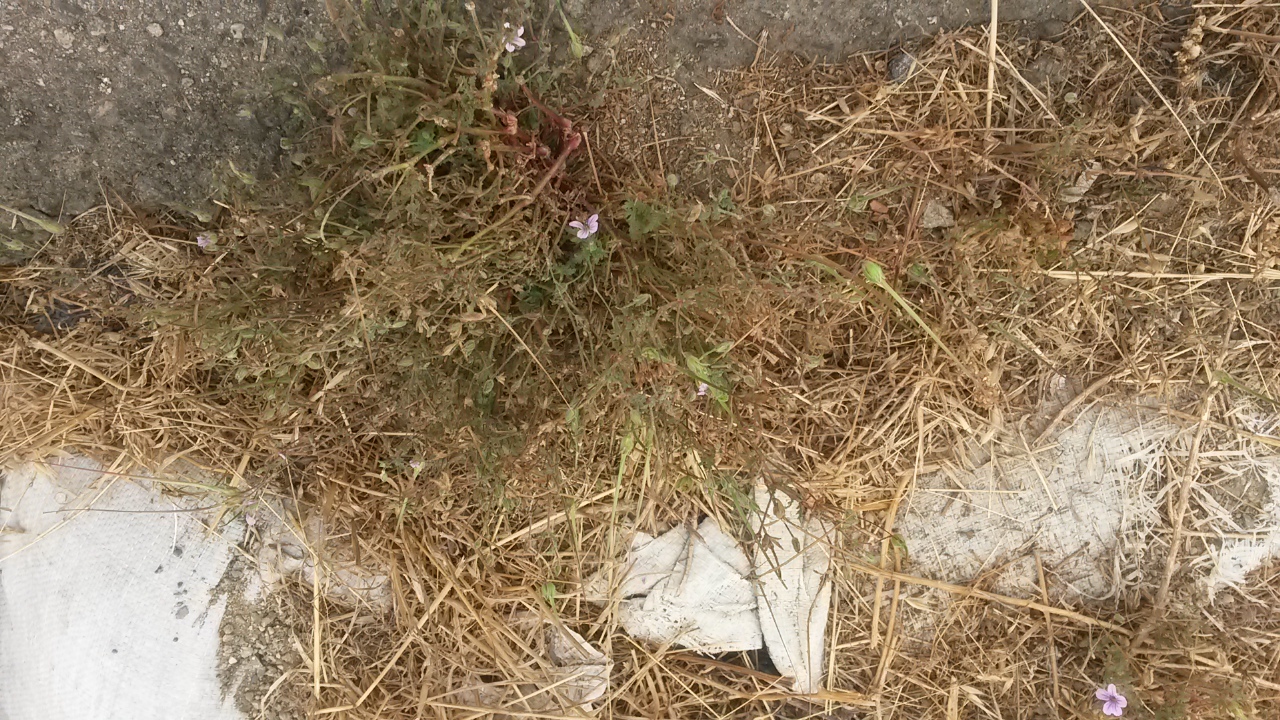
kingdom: Plantae
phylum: Tracheophyta
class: Magnoliopsida
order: Geraniales
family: Geraniaceae
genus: Erodium
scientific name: Erodium botrys
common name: Mediterranean stork's-bill
